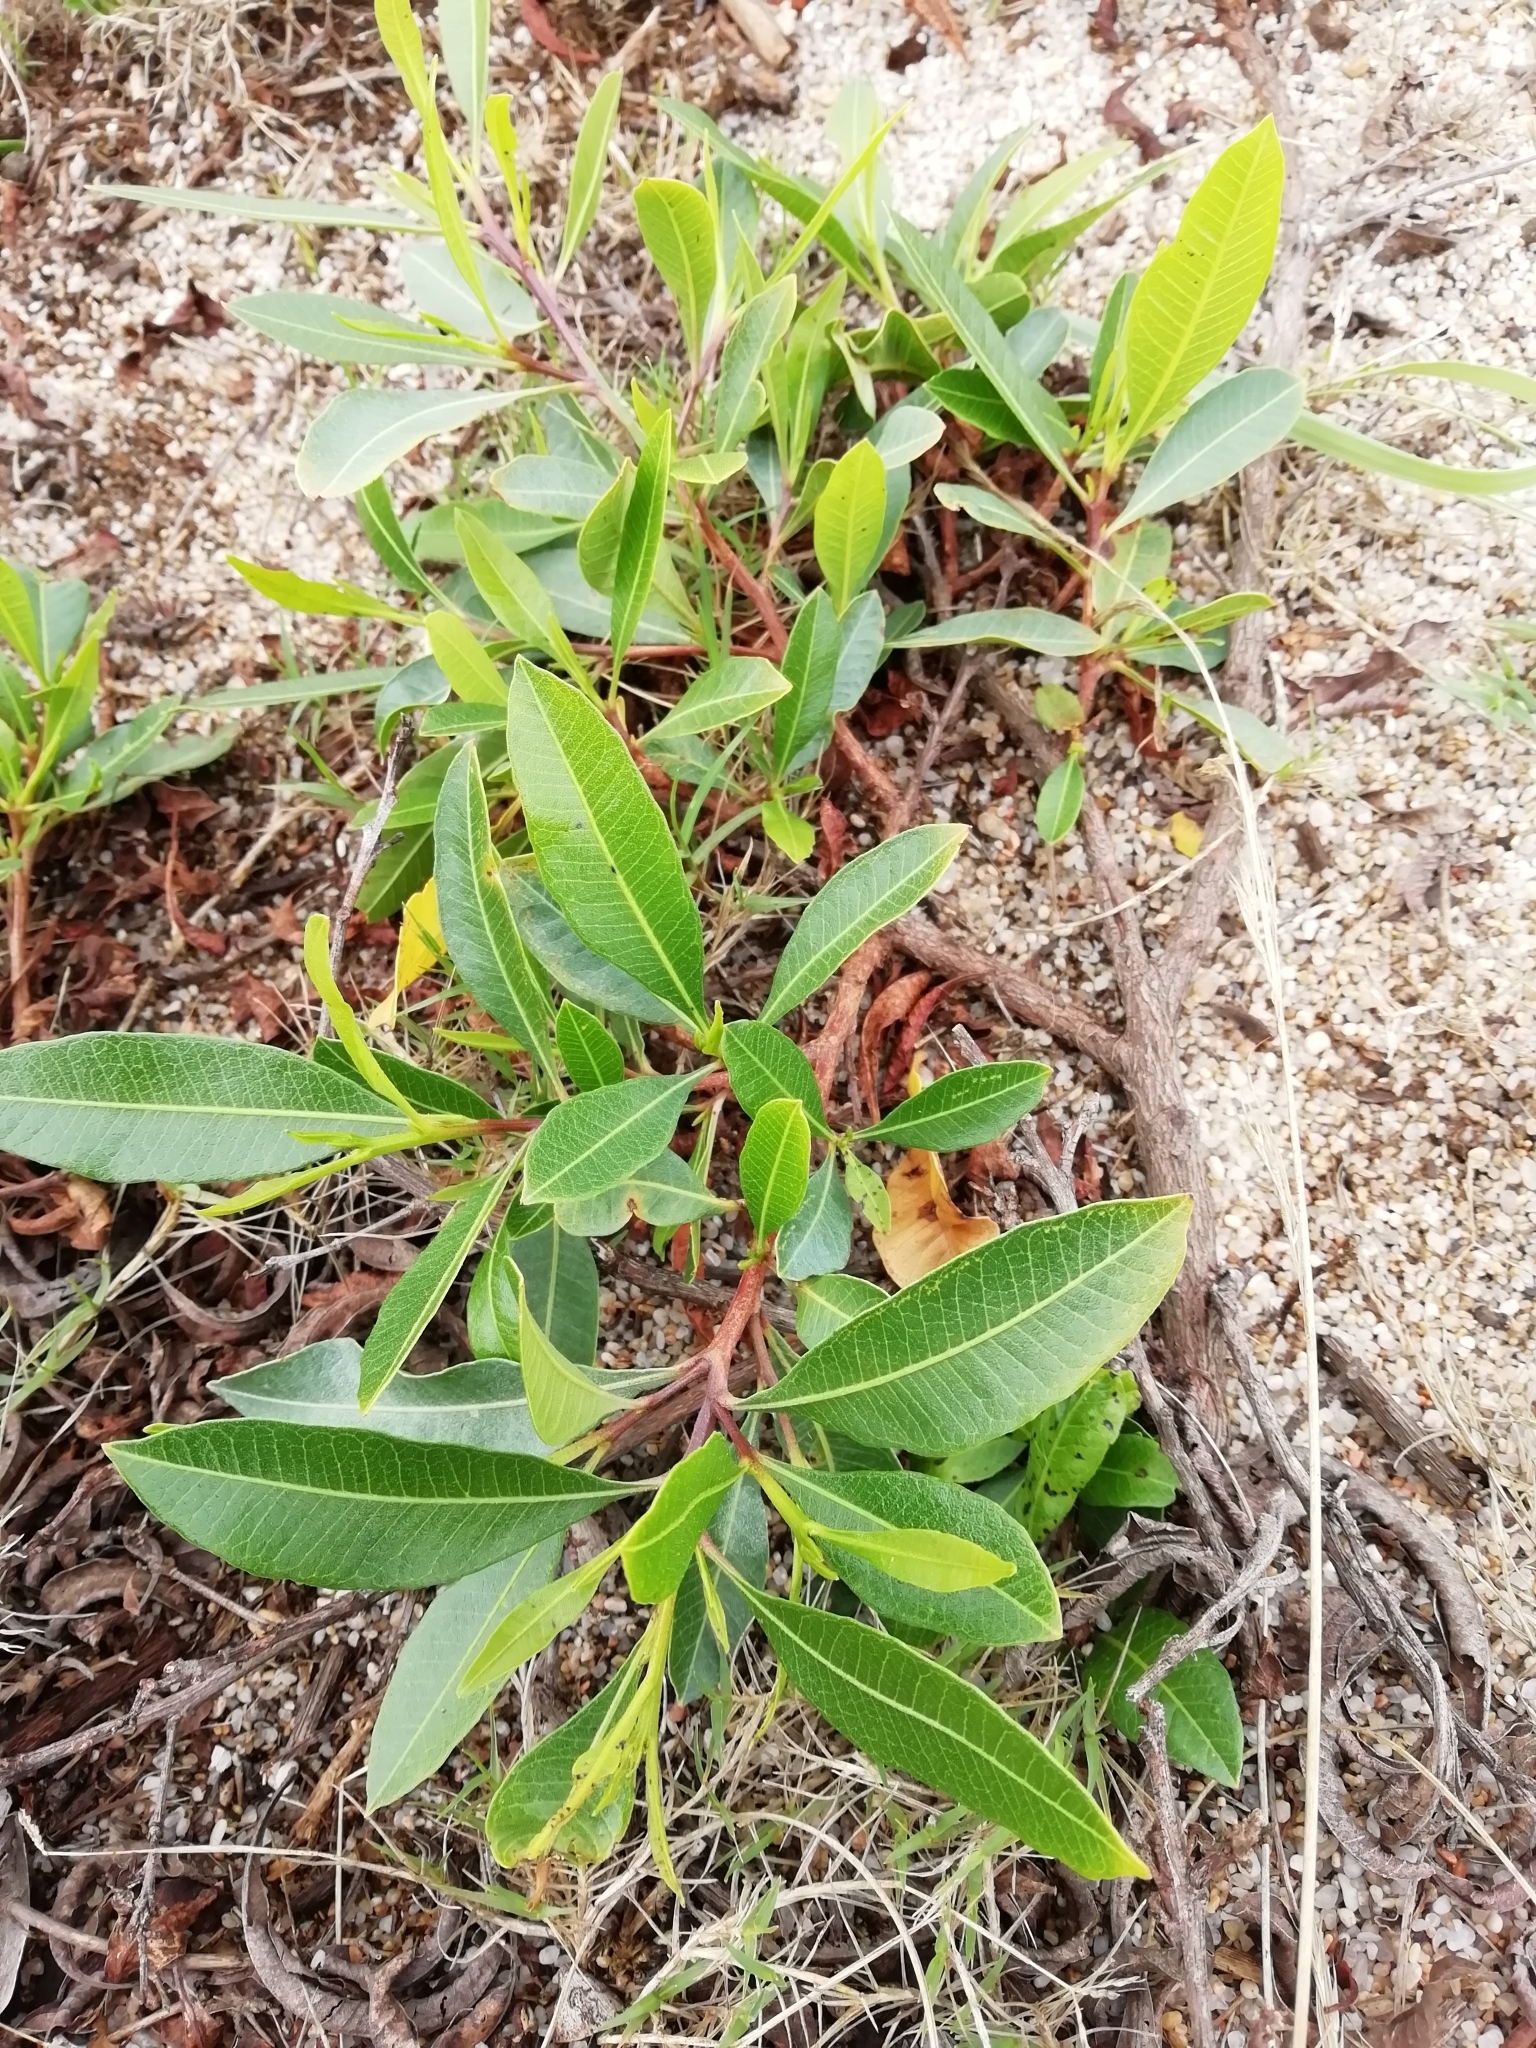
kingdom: Plantae
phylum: Tracheophyta
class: Magnoliopsida
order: Sapindales
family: Sapindaceae
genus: Dodonaea
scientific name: Dodonaea viscosa
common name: Hopbush
